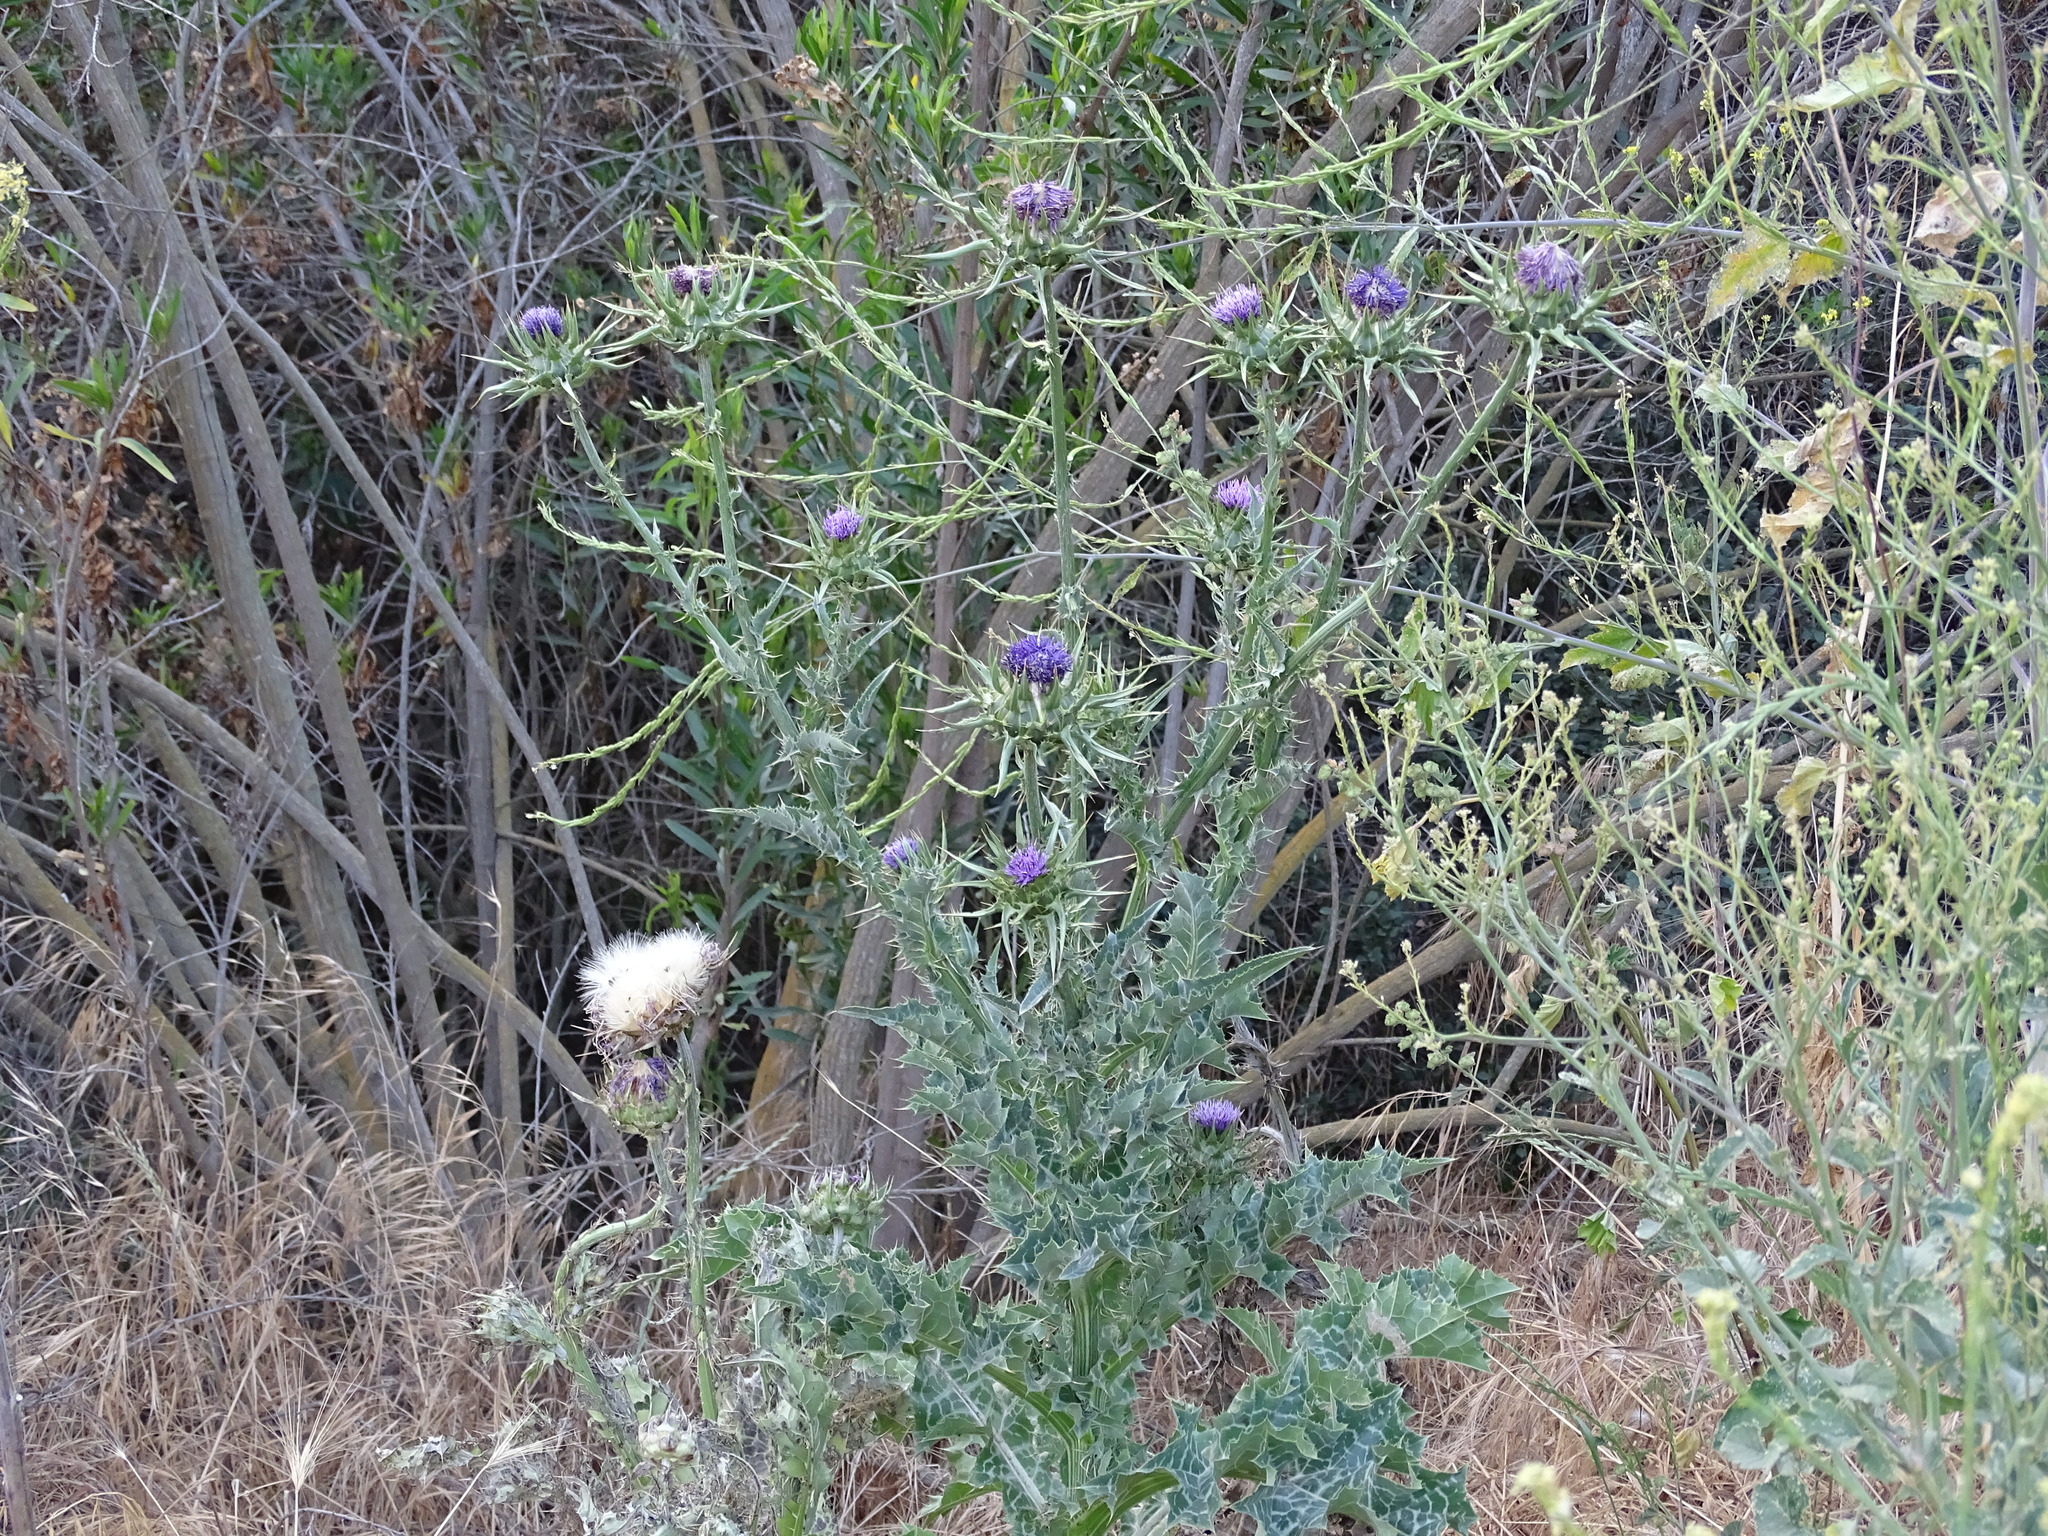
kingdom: Plantae
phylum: Tracheophyta
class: Magnoliopsida
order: Asterales
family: Asteraceae
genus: Silybum
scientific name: Silybum marianum
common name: Milk thistle
